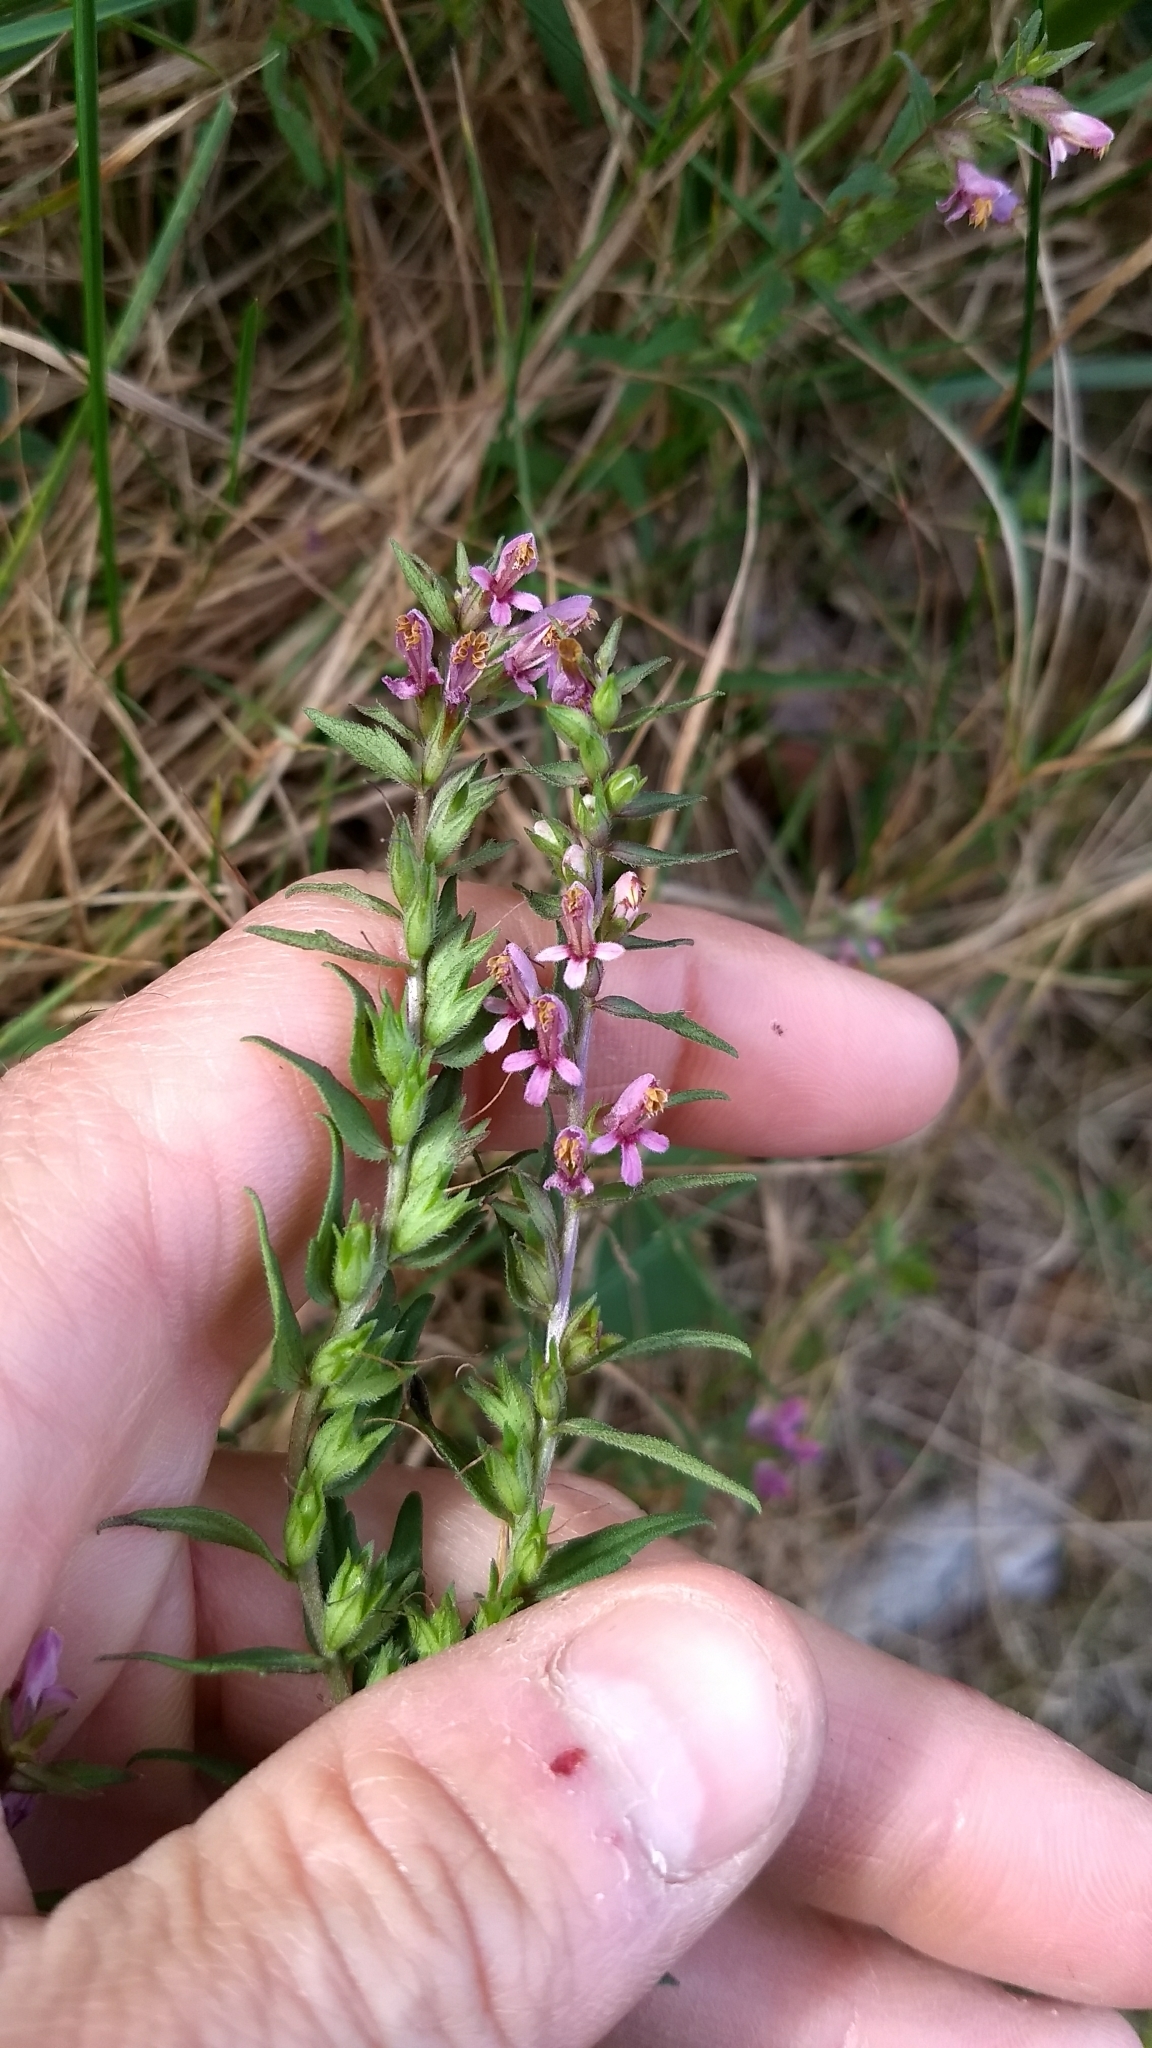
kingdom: Plantae
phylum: Tracheophyta
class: Magnoliopsida
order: Lamiales
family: Orobanchaceae
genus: Odontites
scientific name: Odontites vulgaris
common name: Broomrape
